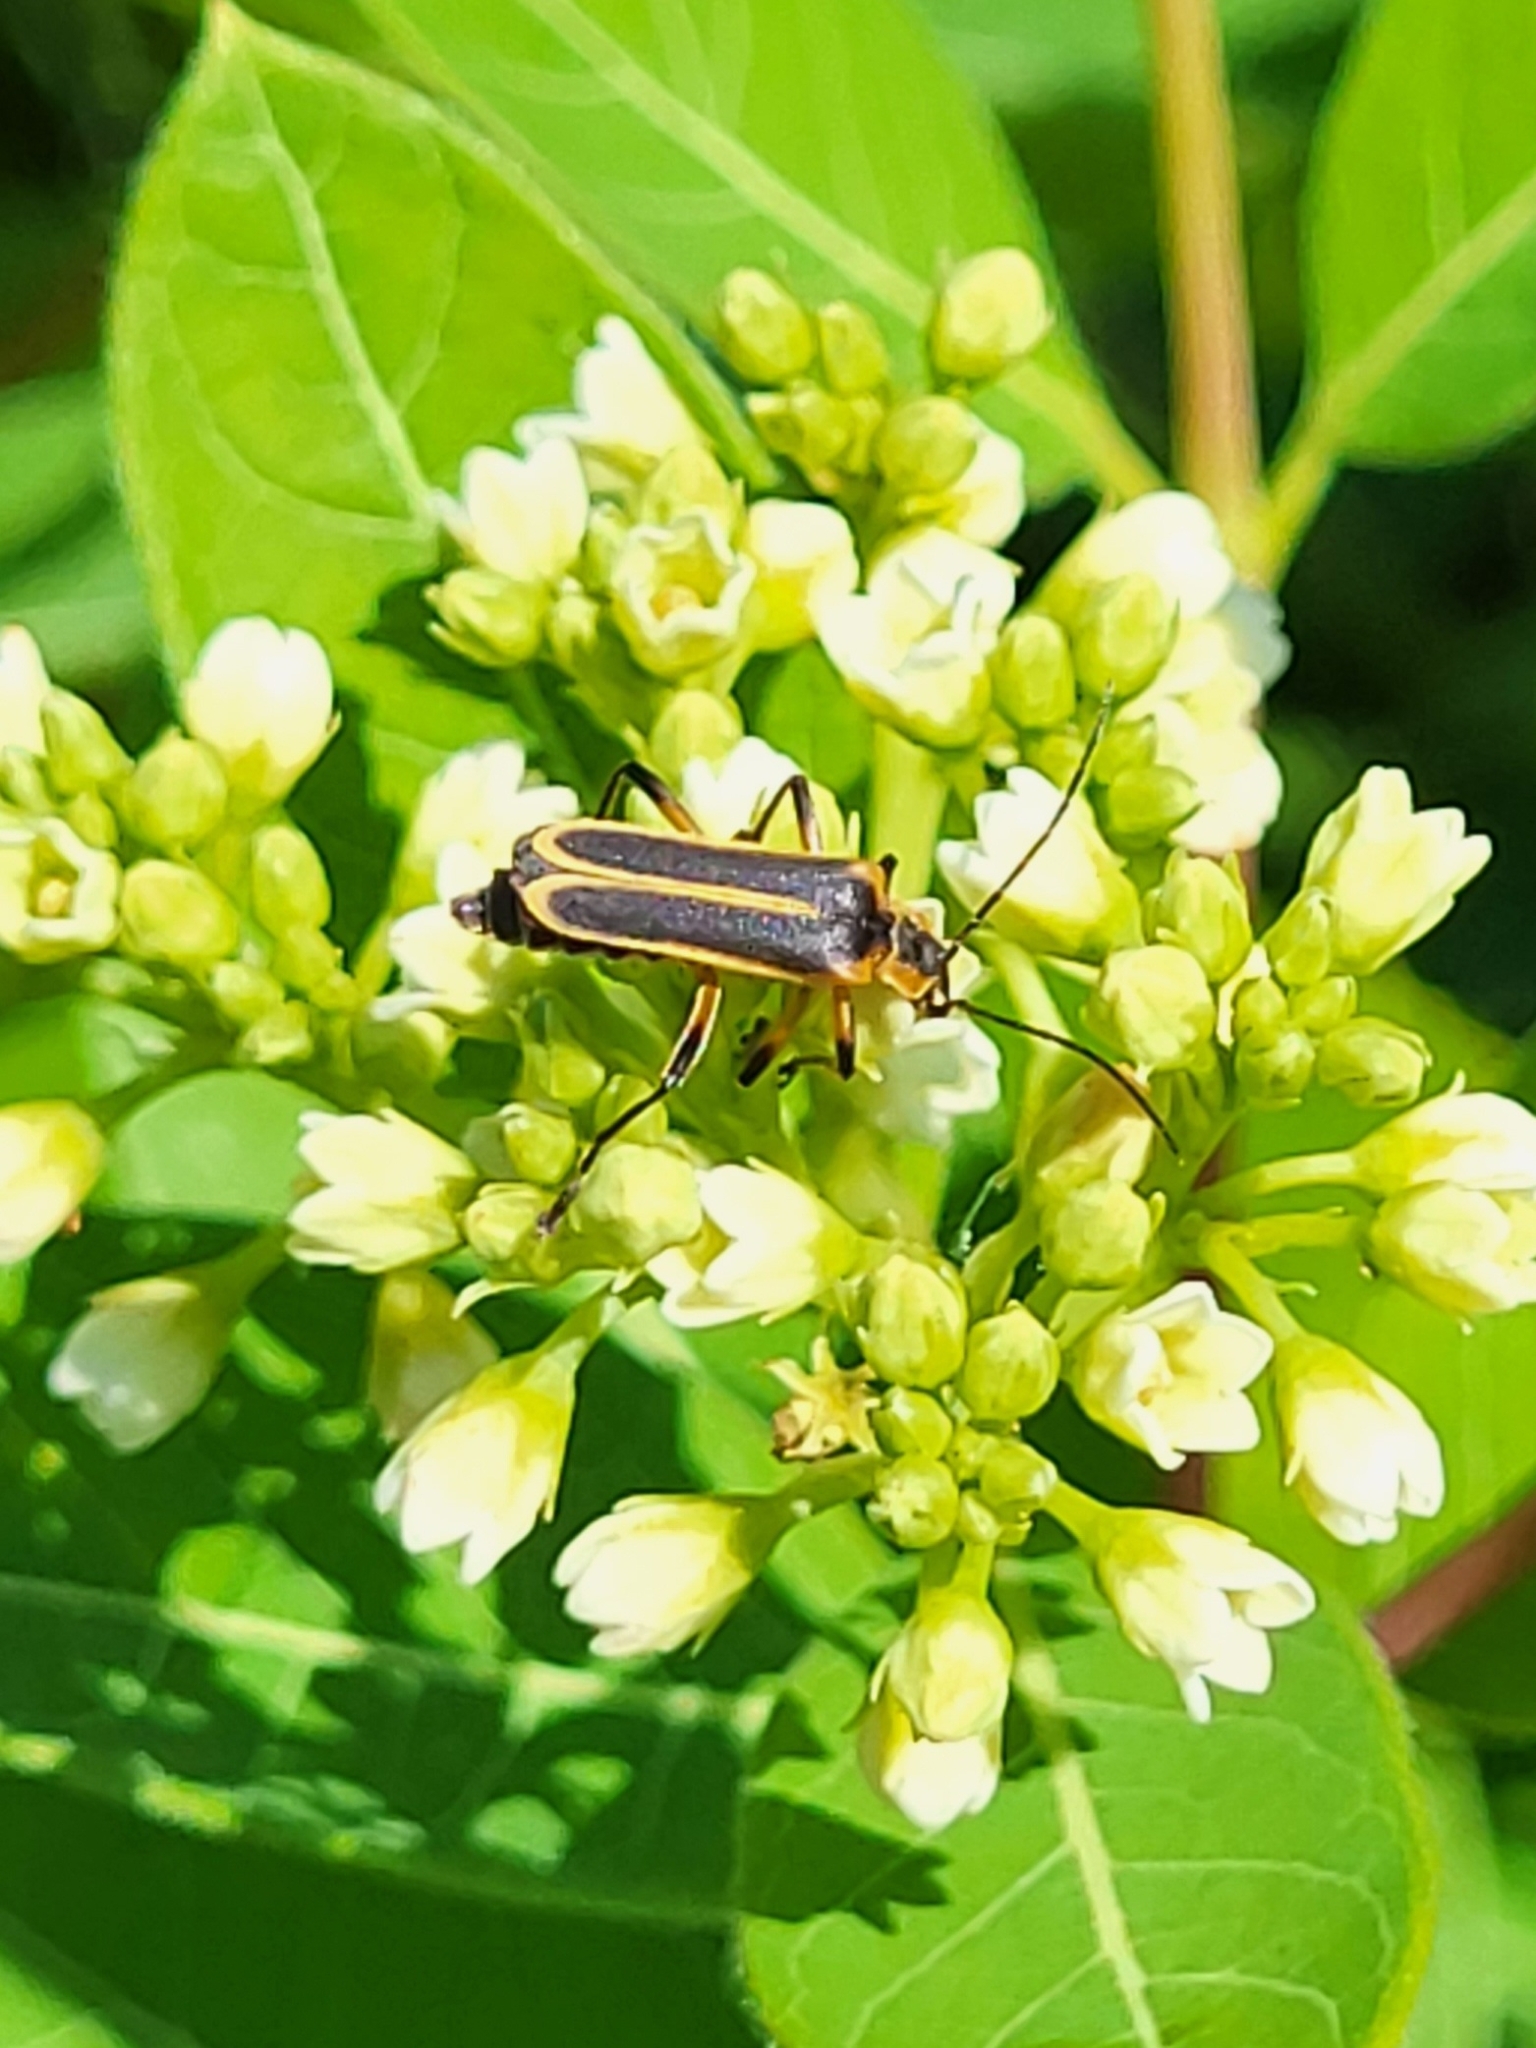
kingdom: Animalia
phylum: Arthropoda
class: Insecta
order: Coleoptera
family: Cantharidae
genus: Chauliognathus
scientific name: Chauliognathus marginatus
